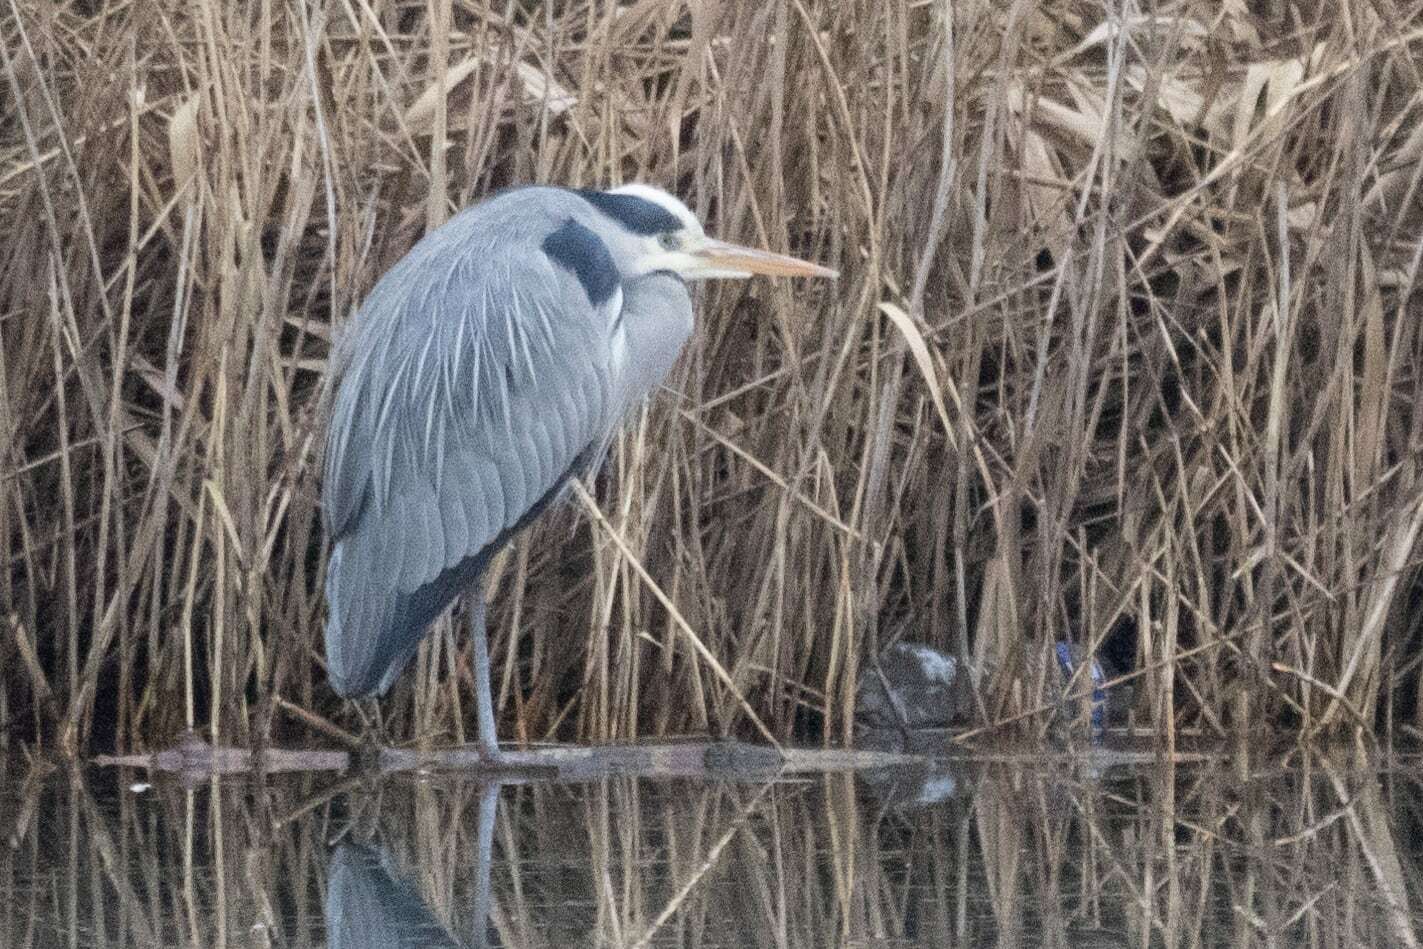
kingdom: Animalia
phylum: Chordata
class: Aves
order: Pelecaniformes
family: Ardeidae
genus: Ardea
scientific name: Ardea cinerea
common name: Grey heron
